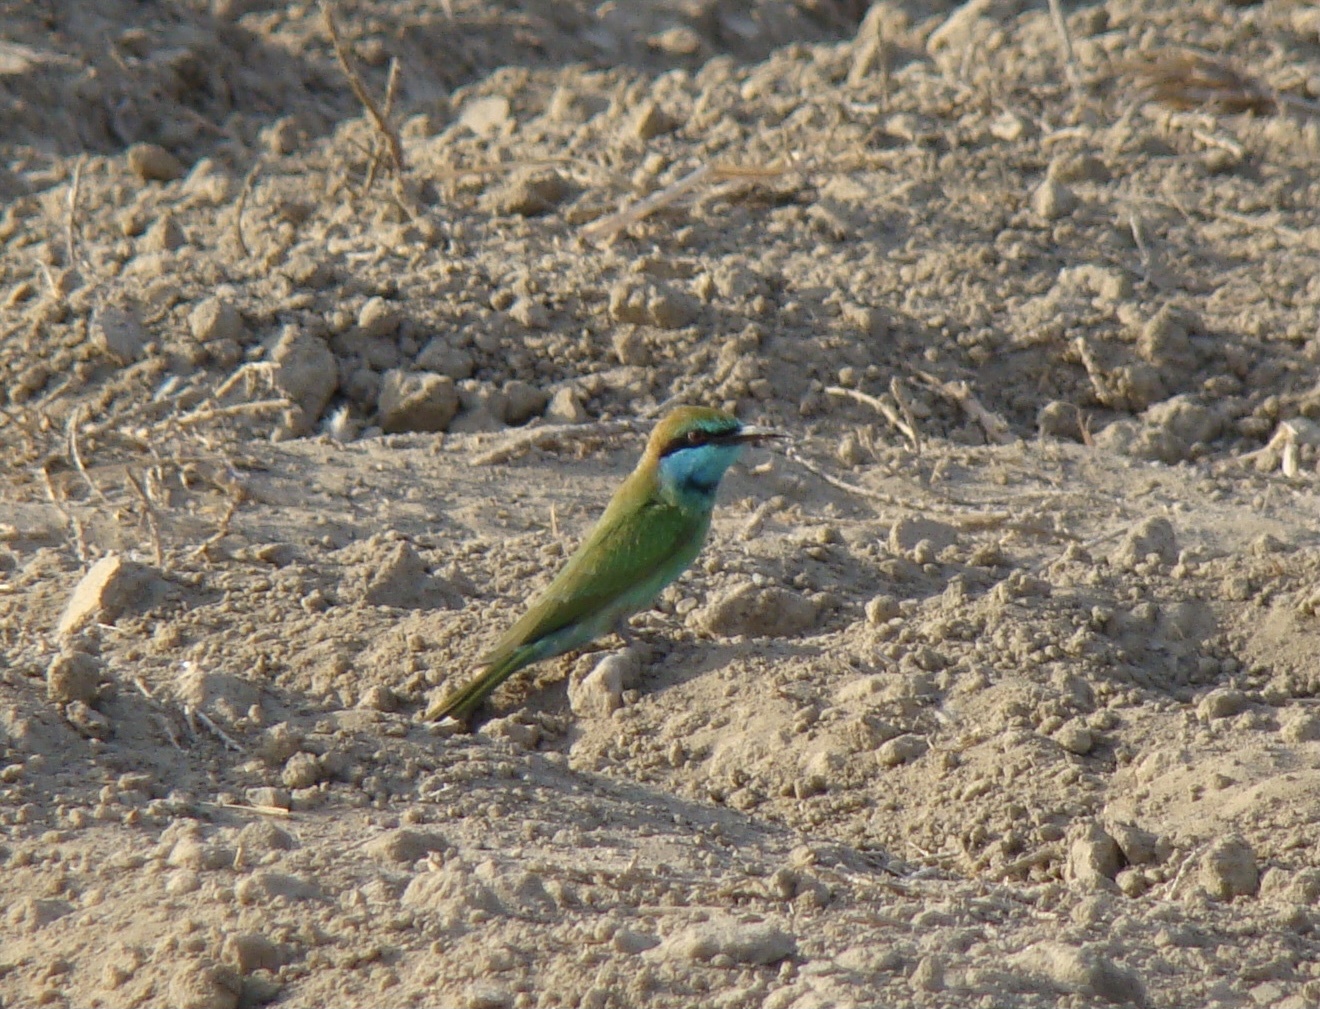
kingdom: Animalia
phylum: Chordata
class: Aves
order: Coraciiformes
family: Meropidae
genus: Merops
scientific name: Merops cyanophrys
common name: Arabian green bee-eater
